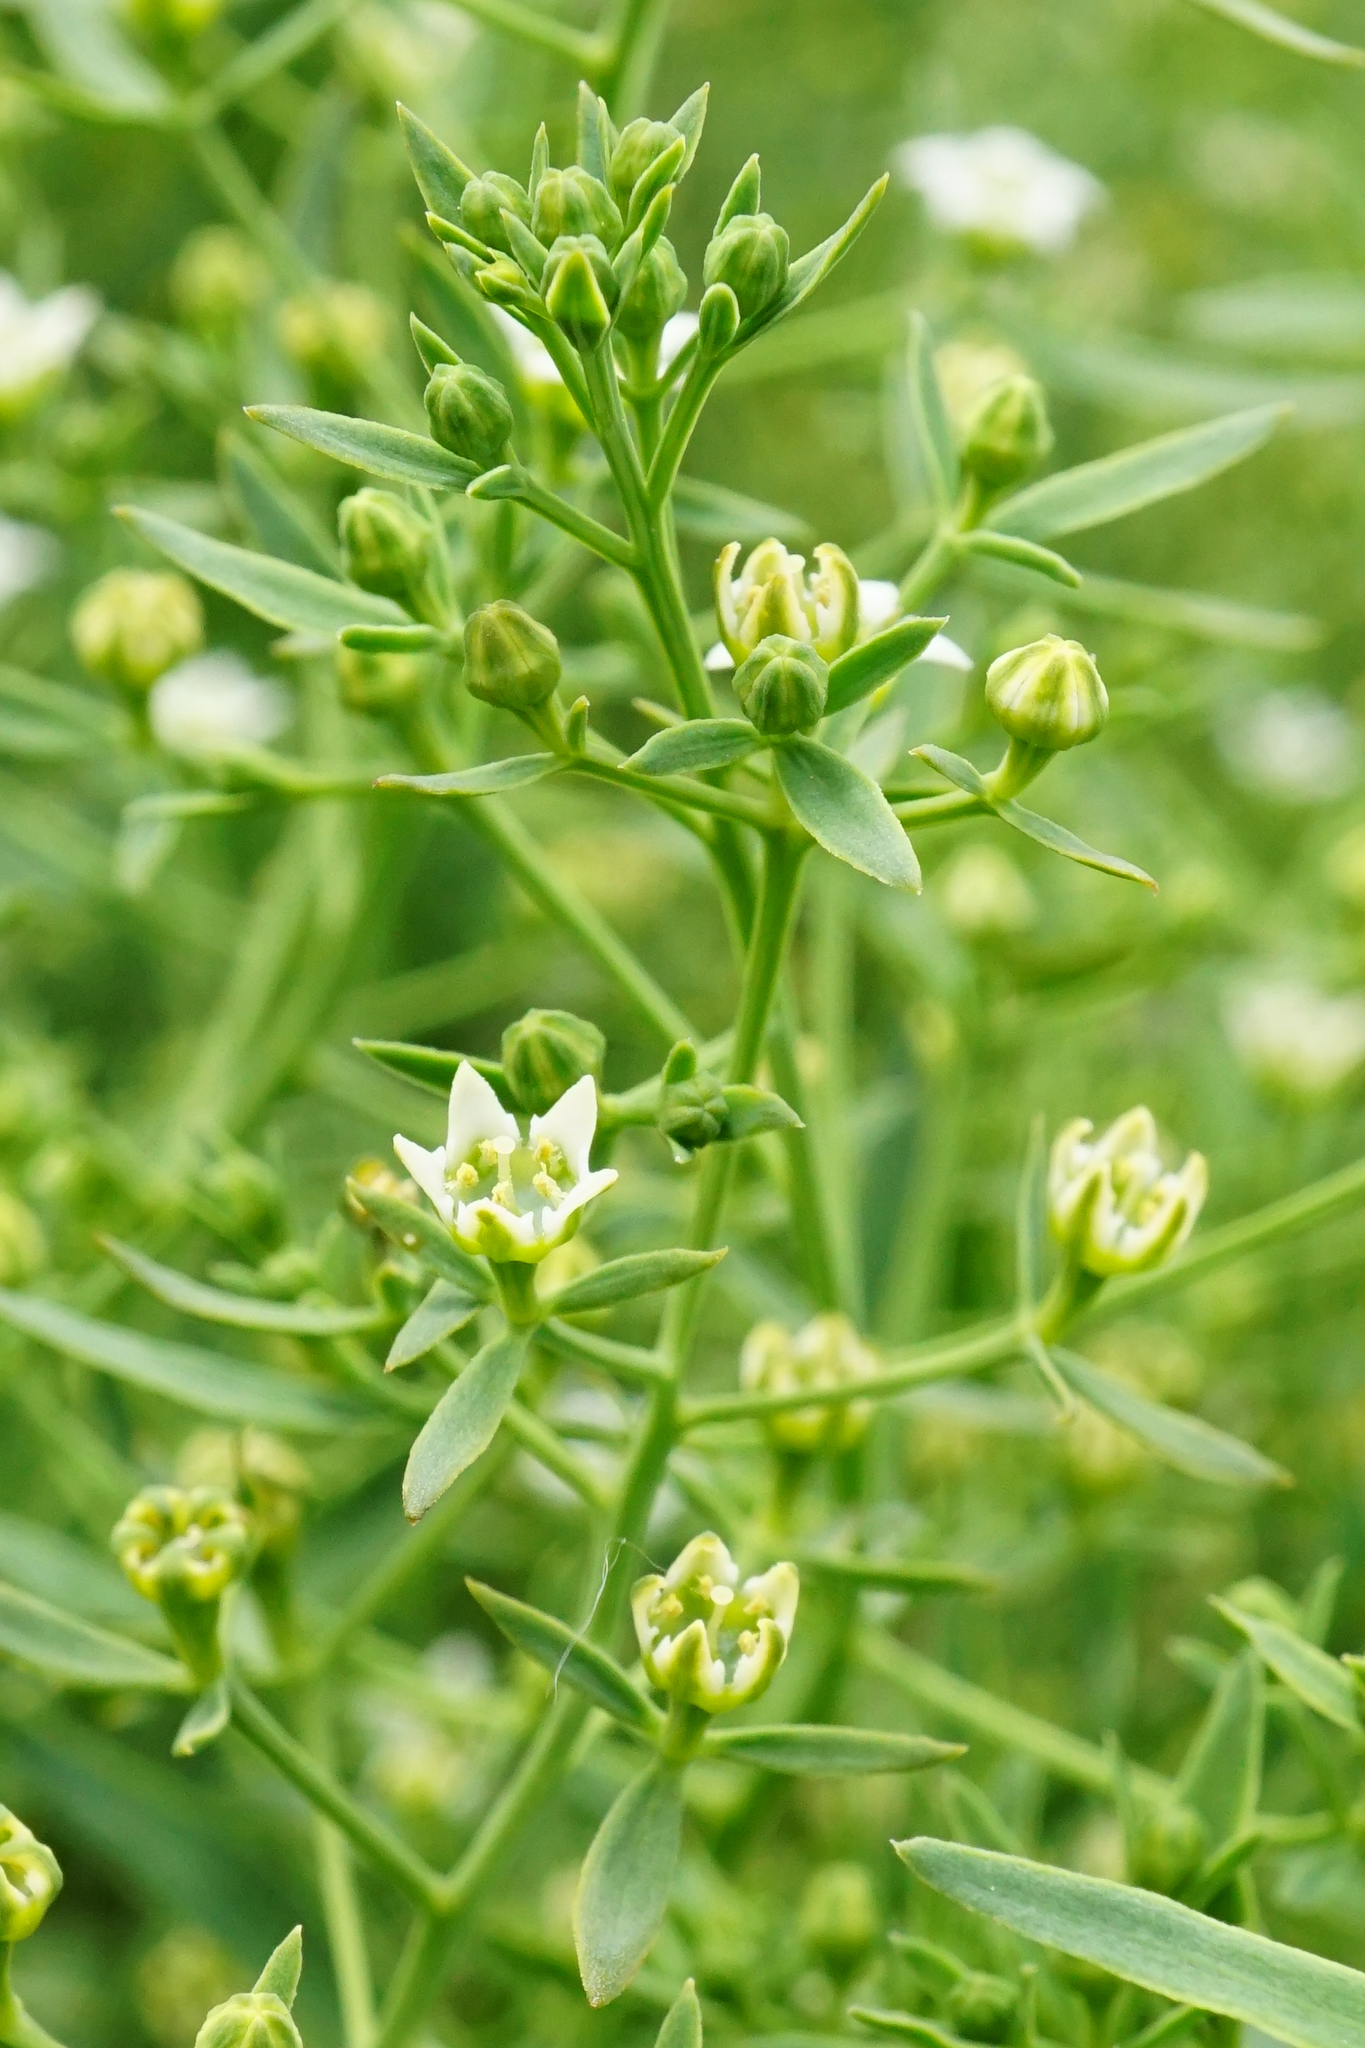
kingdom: Plantae
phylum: Tracheophyta
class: Magnoliopsida
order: Santalales
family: Thesiaceae
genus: Thesium
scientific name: Thesium linophyllon
